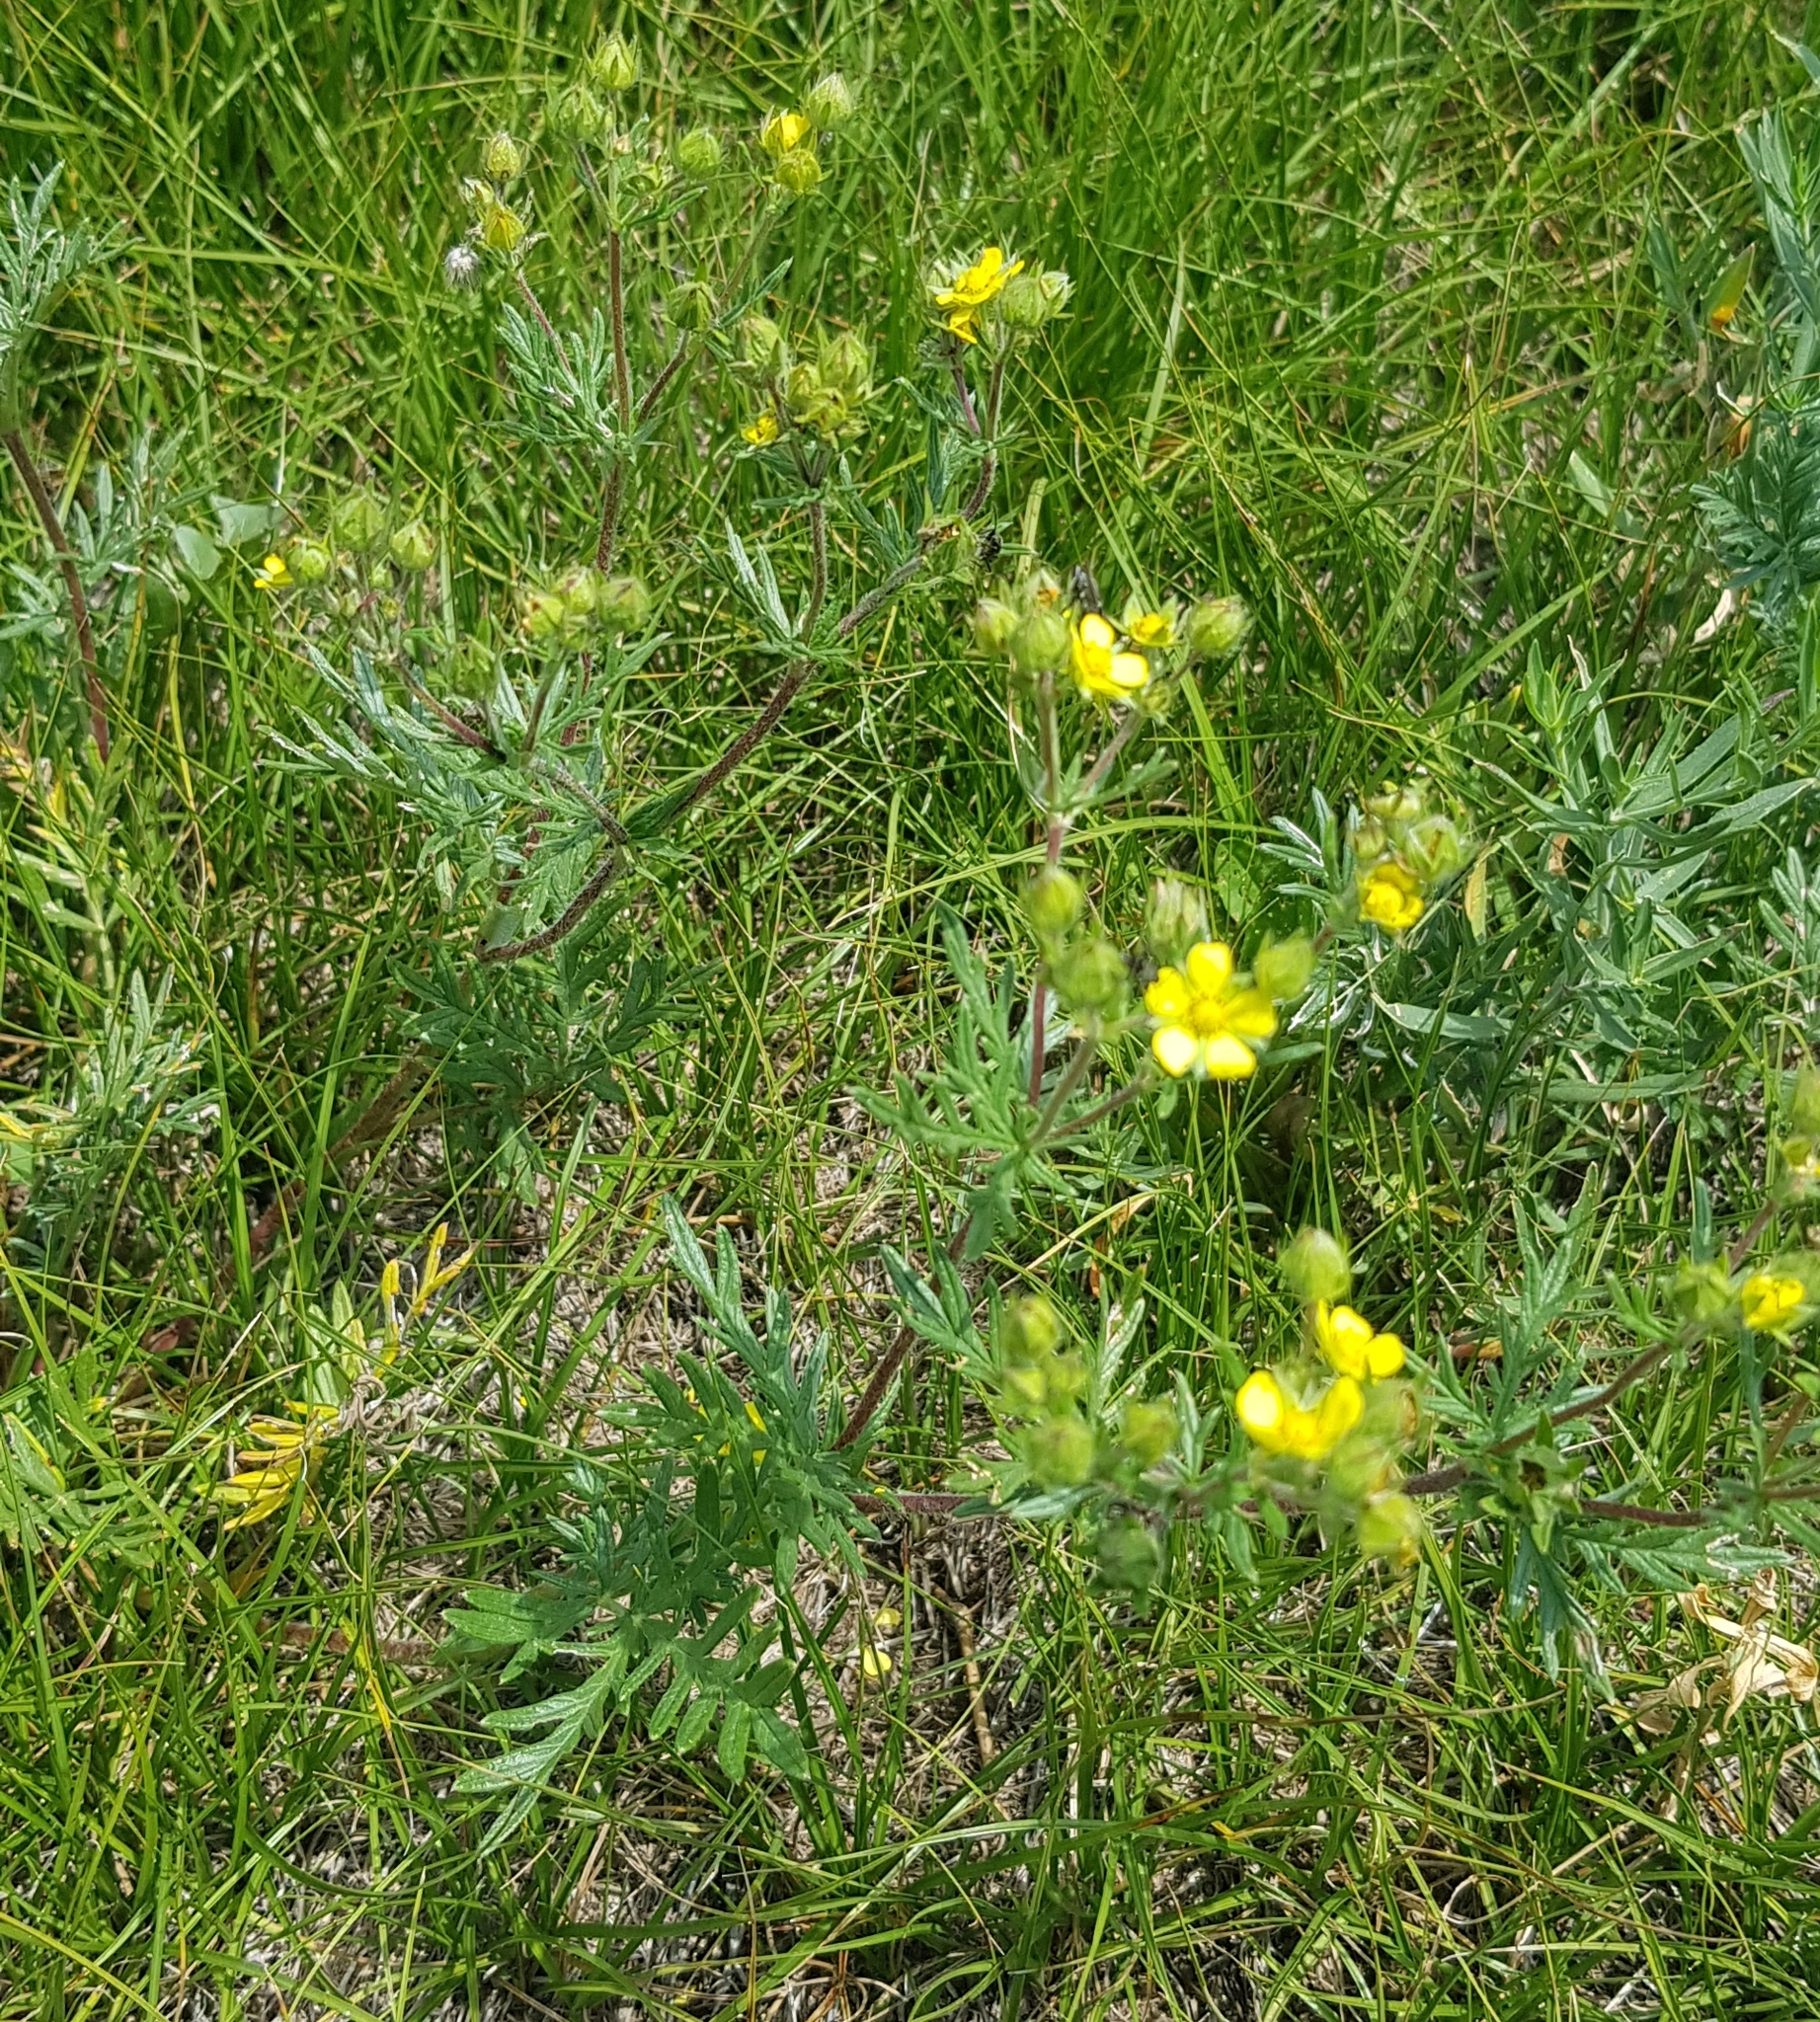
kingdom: Plantae
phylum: Tracheophyta
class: Magnoliopsida
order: Rosales
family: Rosaceae
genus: Potentilla
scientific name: Potentilla tergemina
